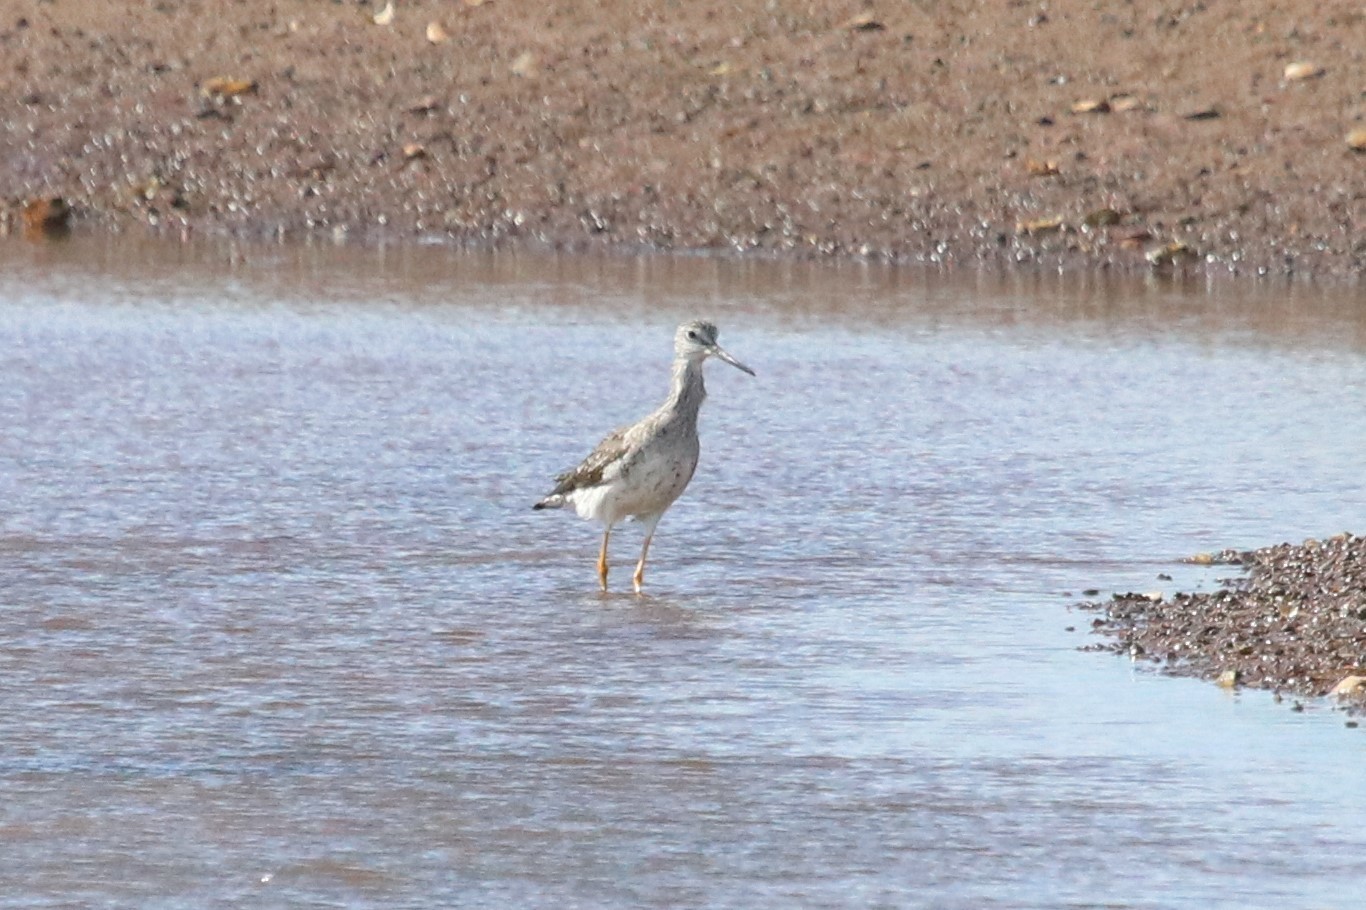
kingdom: Animalia
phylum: Chordata
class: Aves
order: Charadriiformes
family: Scolopacidae
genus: Tringa
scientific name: Tringa melanoleuca
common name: Greater yellowlegs
